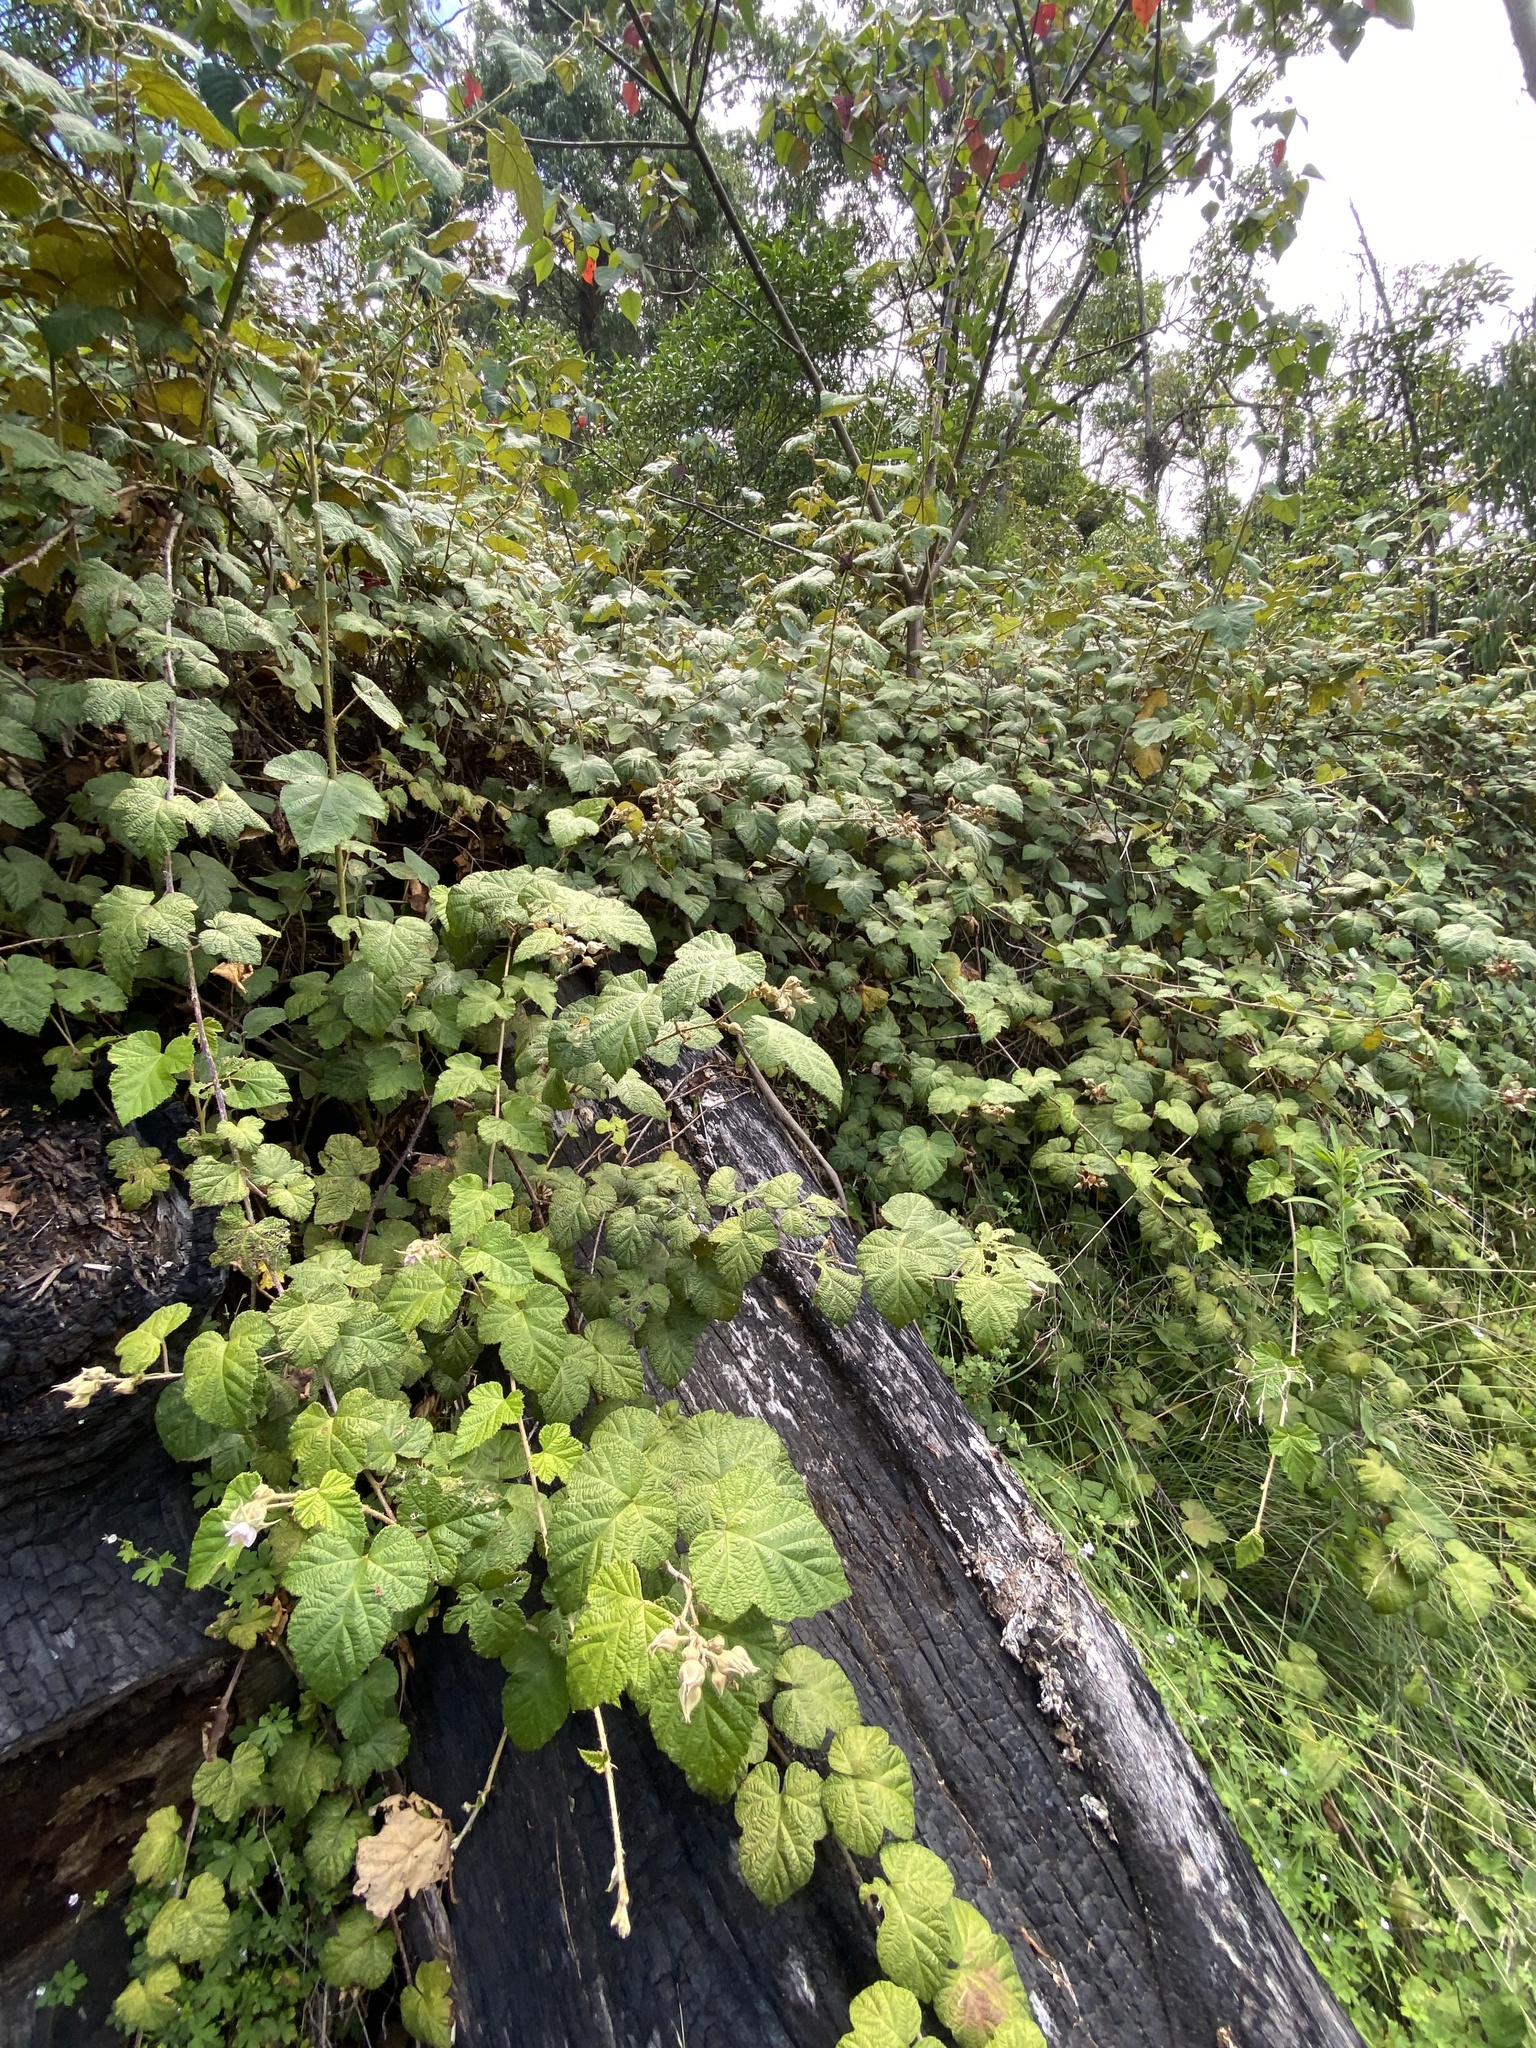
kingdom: Plantae
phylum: Tracheophyta
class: Magnoliopsida
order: Rosales
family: Rosaceae
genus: Rubus
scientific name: Rubus moluccanus
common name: Wild raspberry
